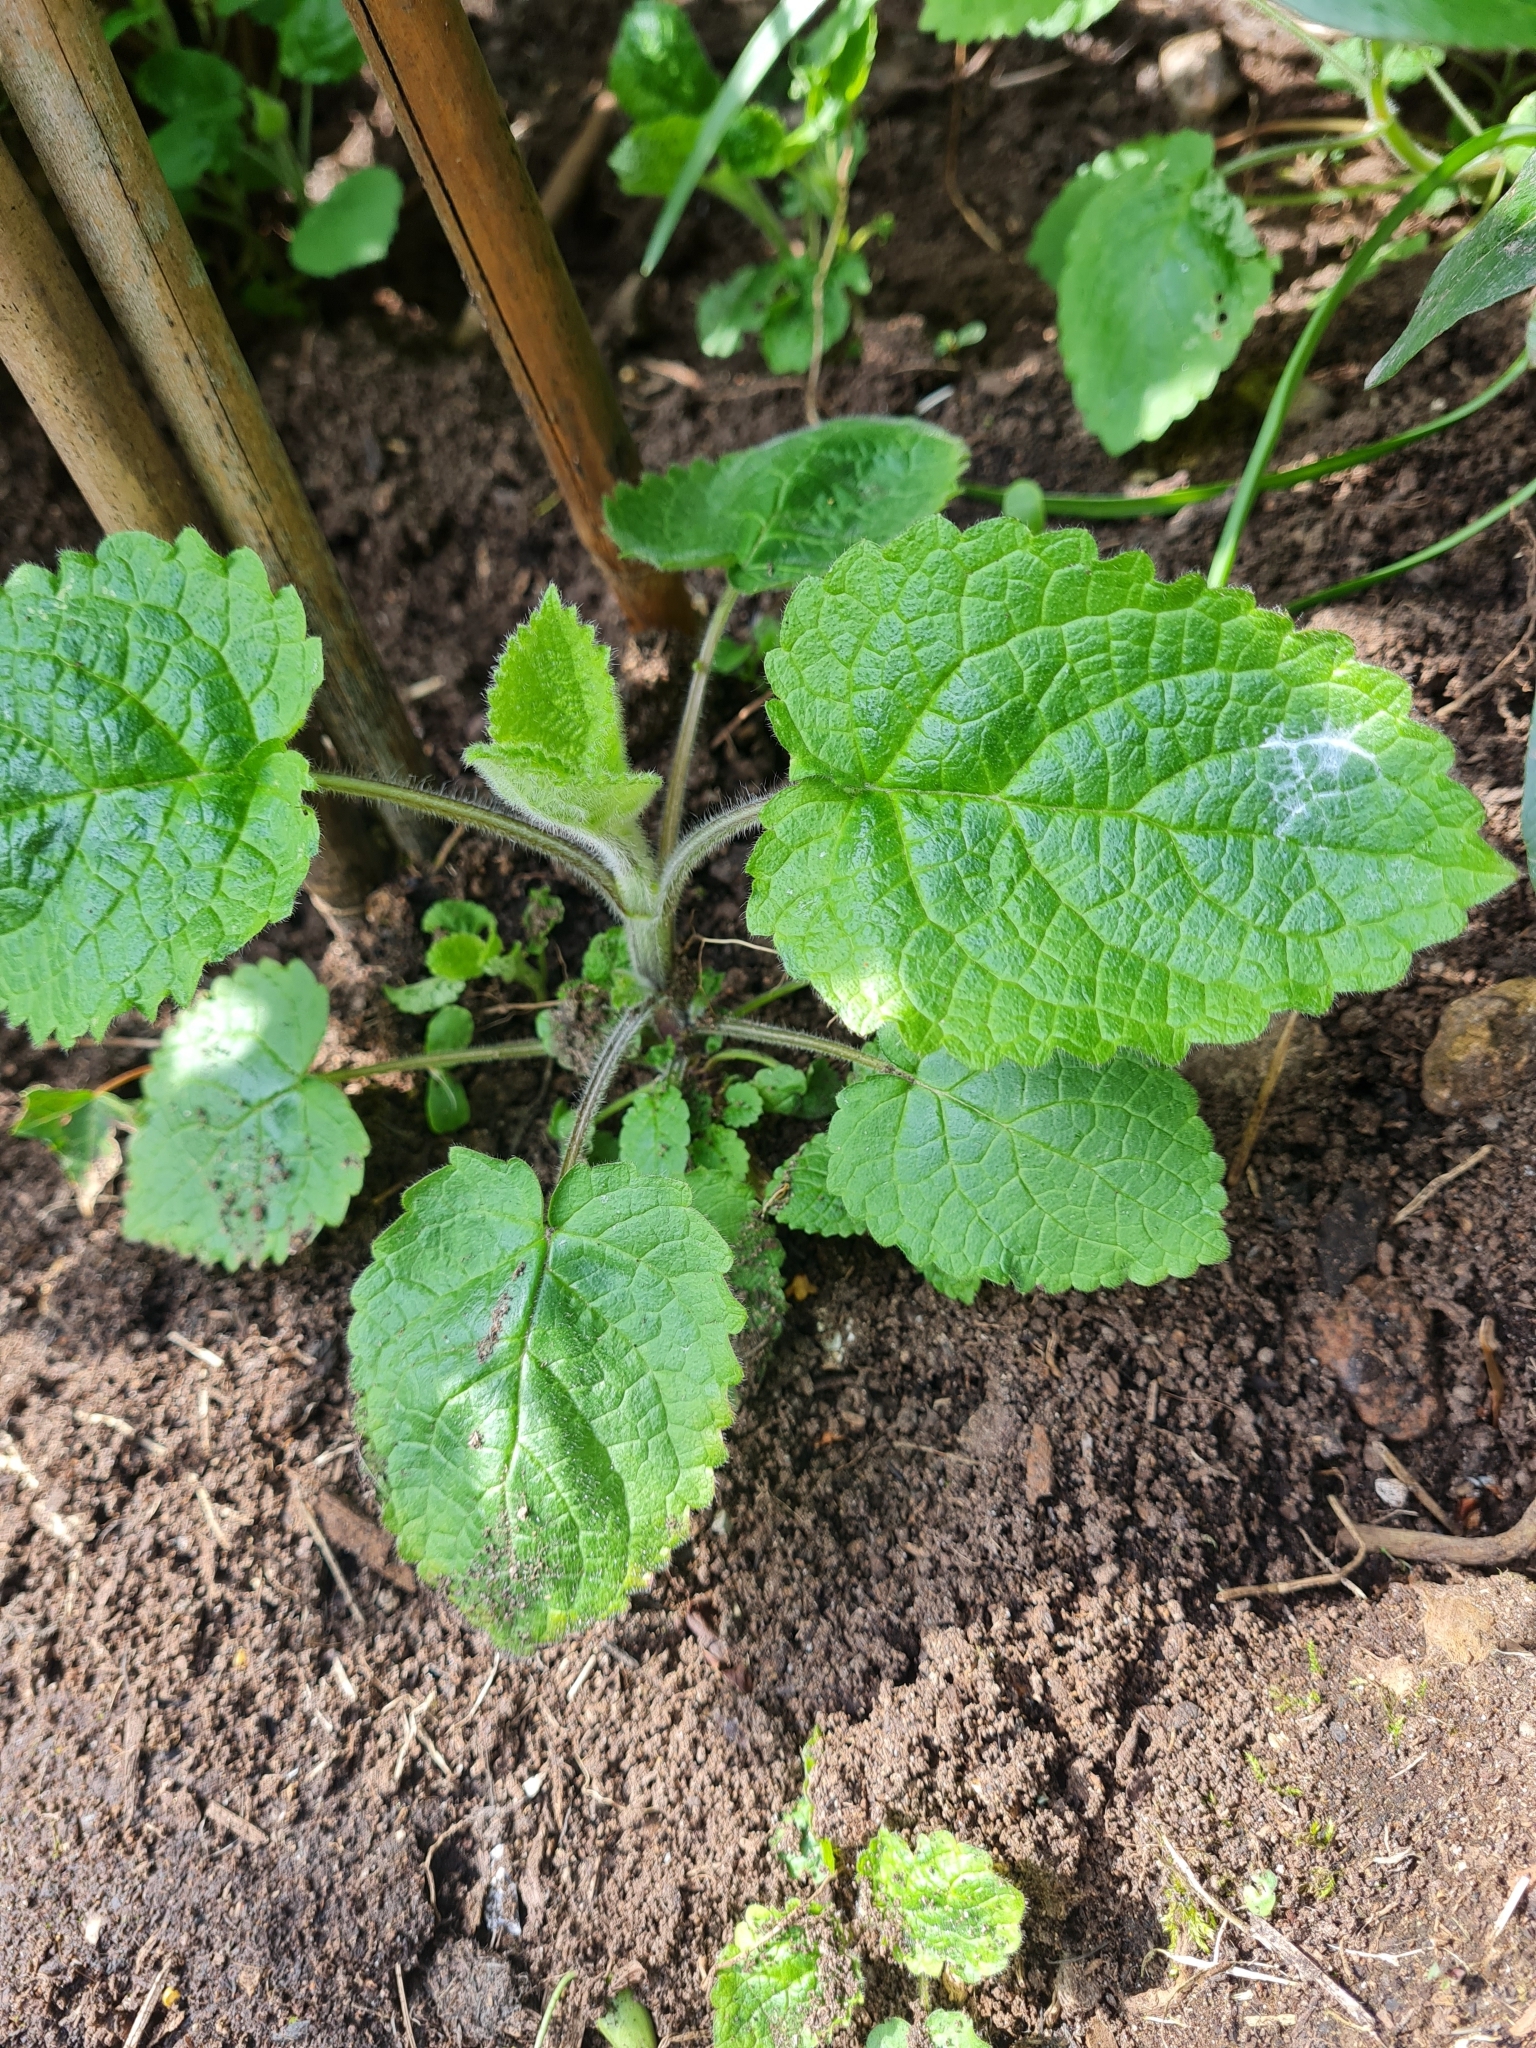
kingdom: Plantae
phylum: Tracheophyta
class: Magnoliopsida
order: Lamiales
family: Lamiaceae
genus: Stachys
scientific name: Stachys sylvatica
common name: Hedge woundwort
